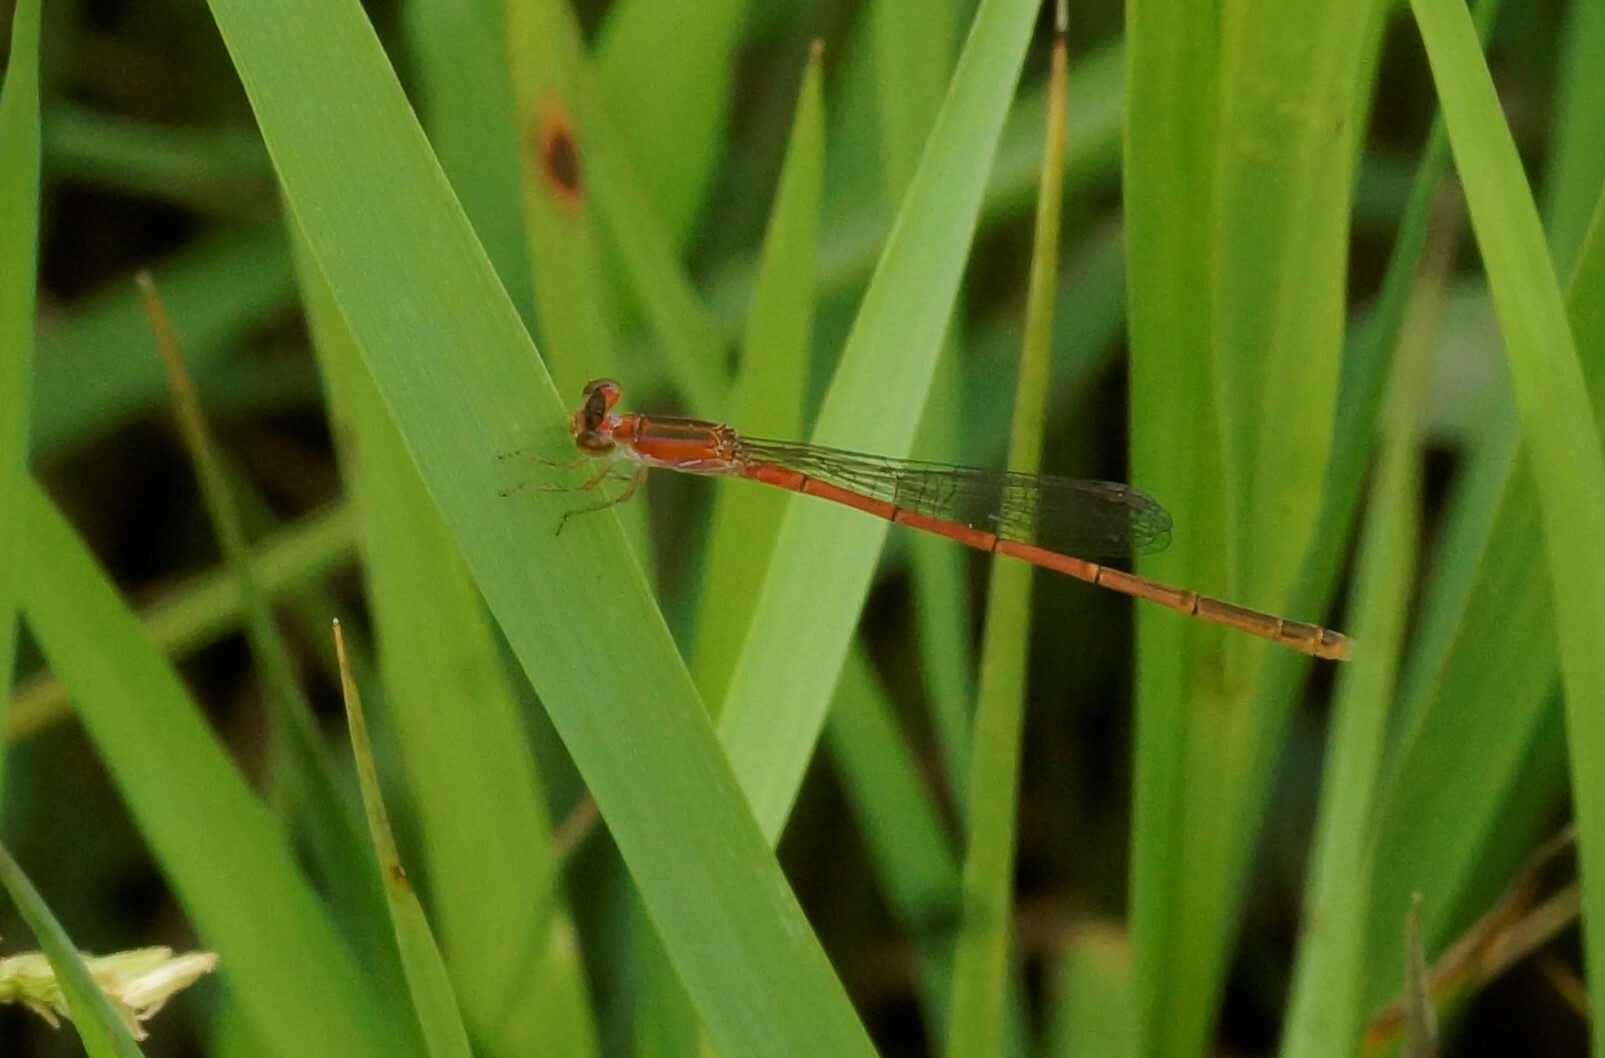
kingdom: Animalia
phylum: Arthropoda
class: Insecta
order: Odonata
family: Coenagrionidae
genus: Agriocnemis
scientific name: Agriocnemis pygmaea
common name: Pygmy wisp
